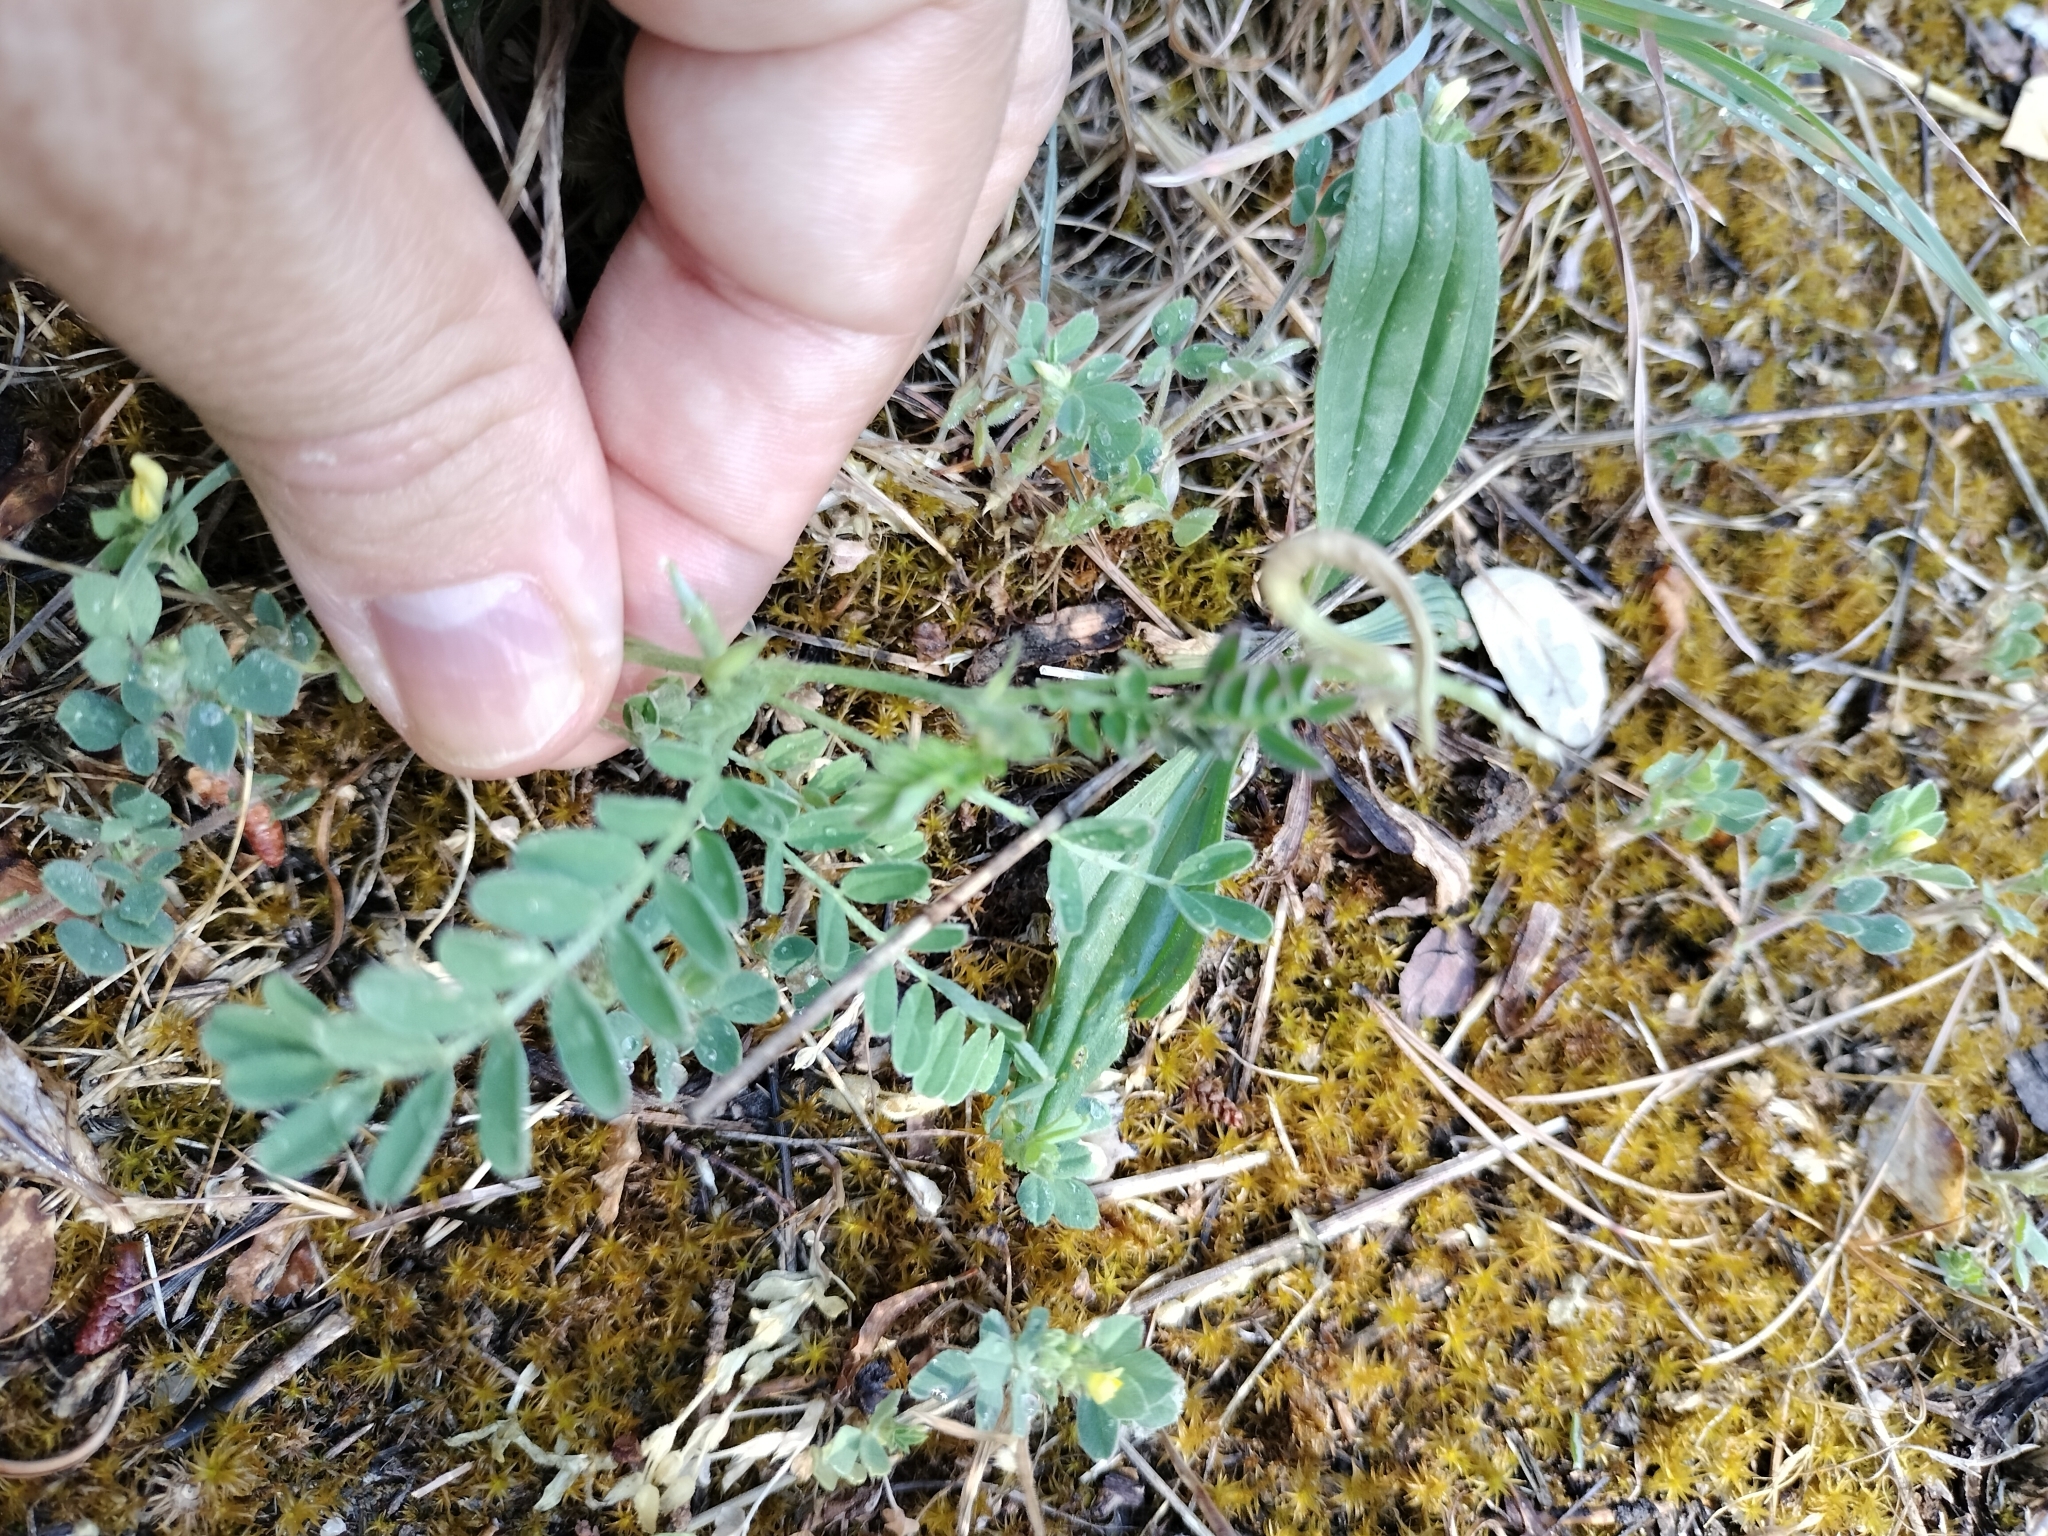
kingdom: Plantae
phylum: Tracheophyta
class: Magnoliopsida
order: Fabales
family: Fabaceae
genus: Astragalus
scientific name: Astragalus hamosus
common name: European milkvetch
